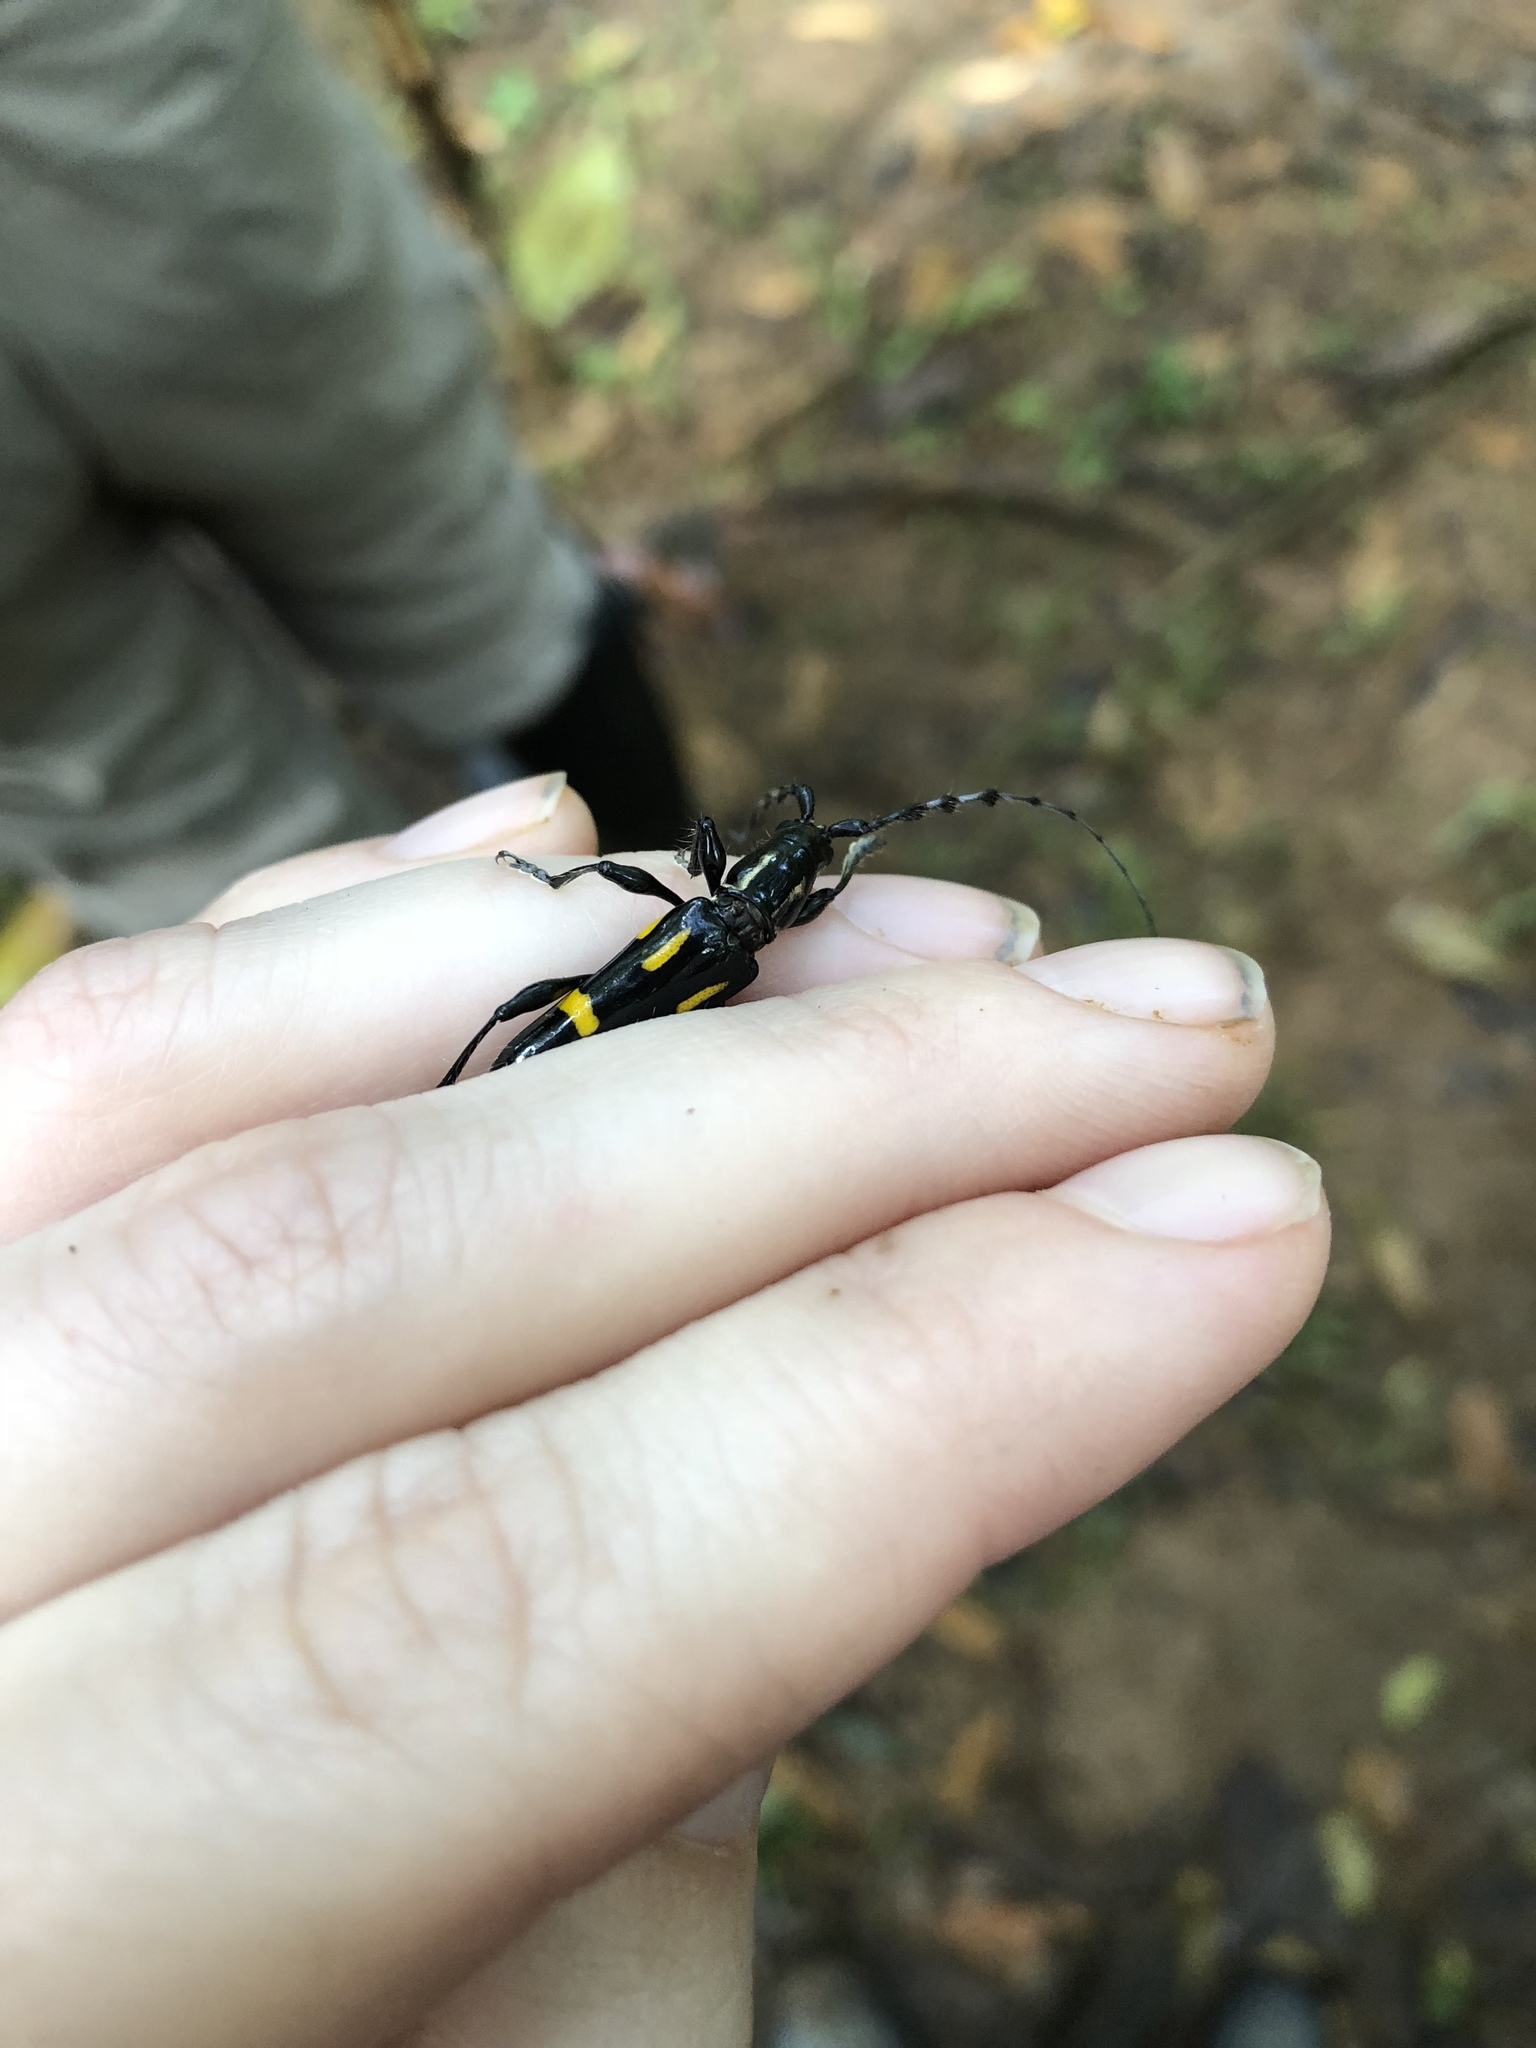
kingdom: Animalia
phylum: Arthropoda
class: Insecta
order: Coleoptera
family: Cerambycidae
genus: Platyarthron
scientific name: Platyarthron chilense
